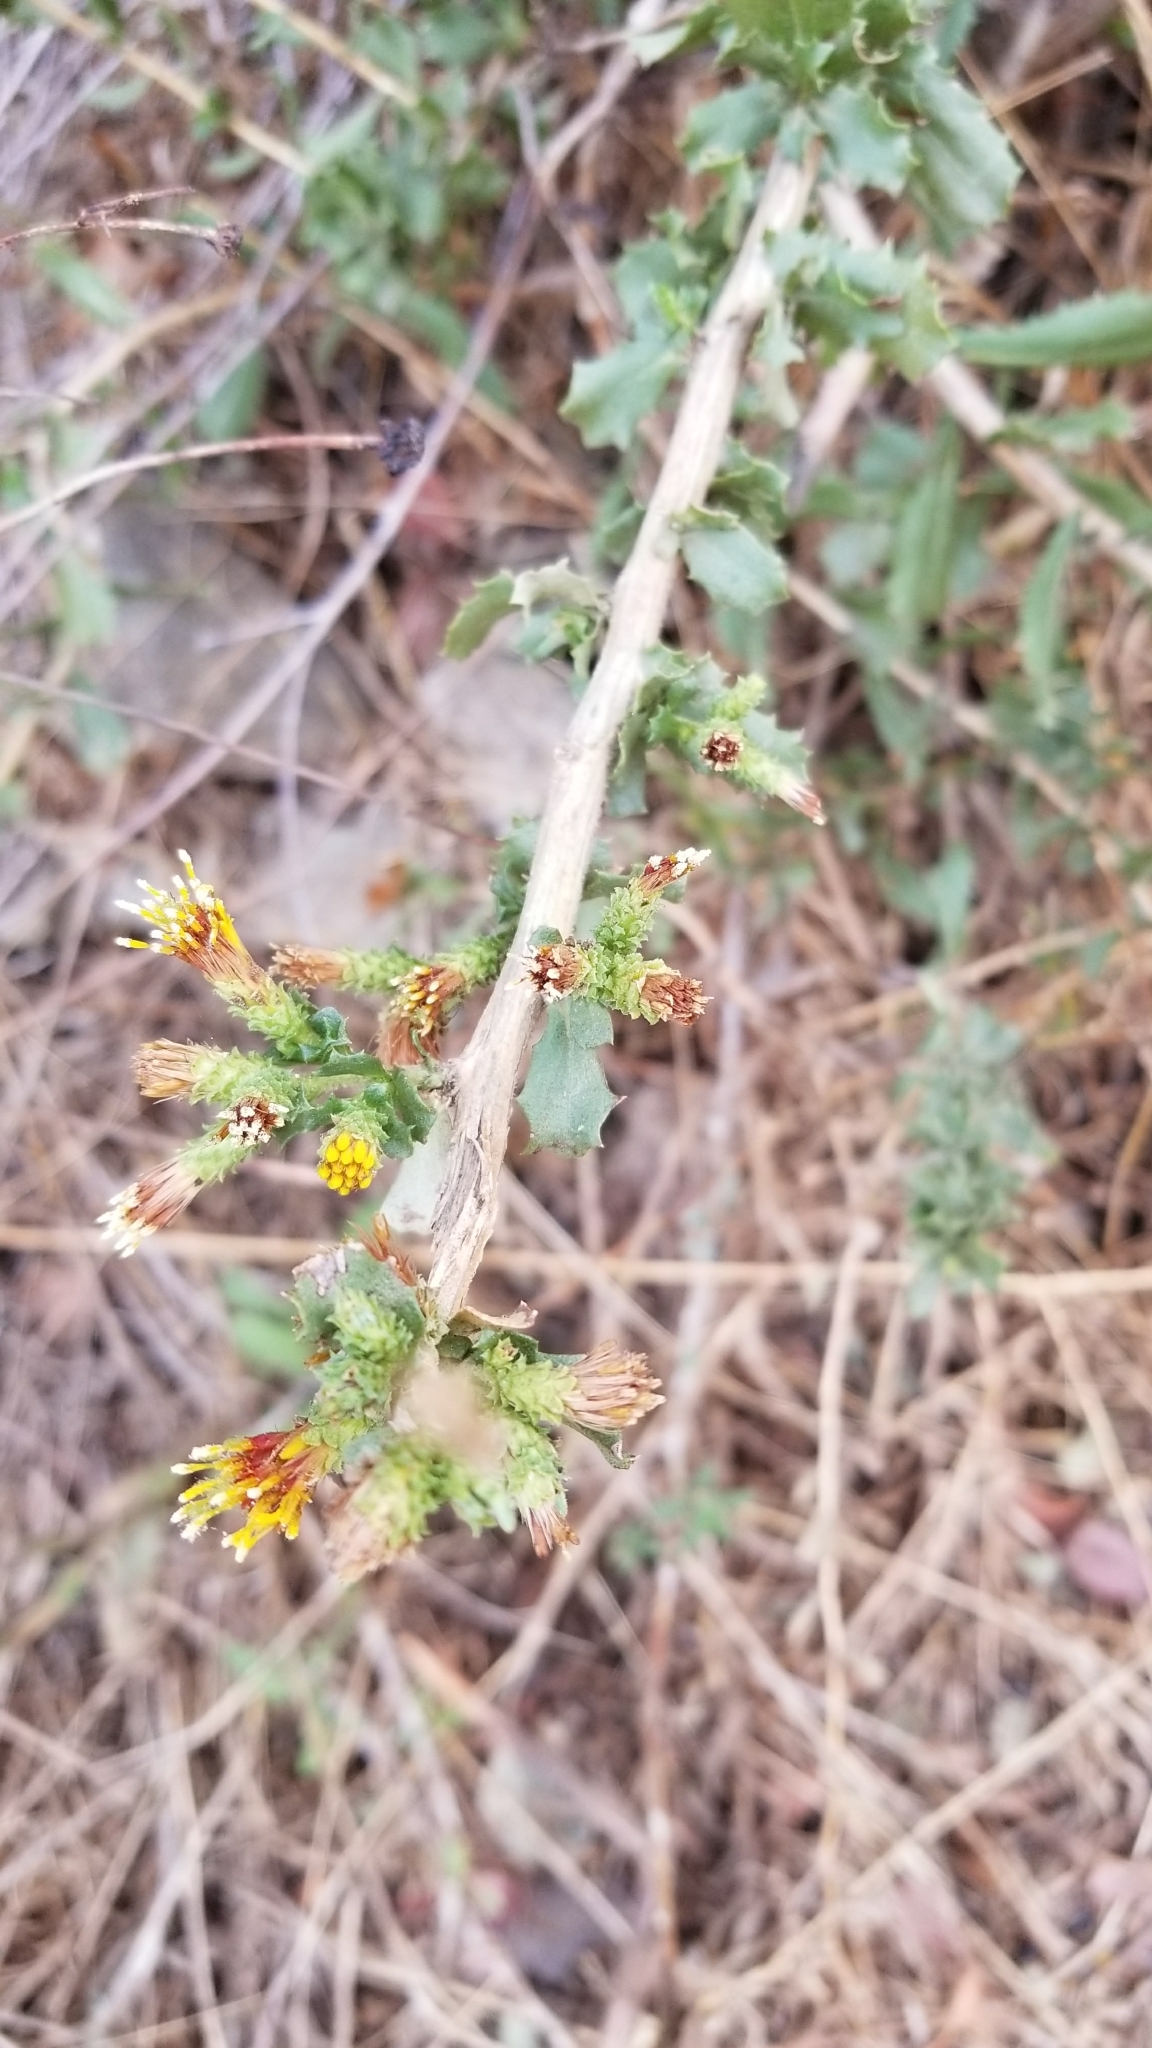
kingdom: Plantae
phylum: Tracheophyta
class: Magnoliopsida
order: Asterales
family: Asteraceae
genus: Hazardia
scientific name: Hazardia squarrosa
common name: Saw-tooth goldenbush
